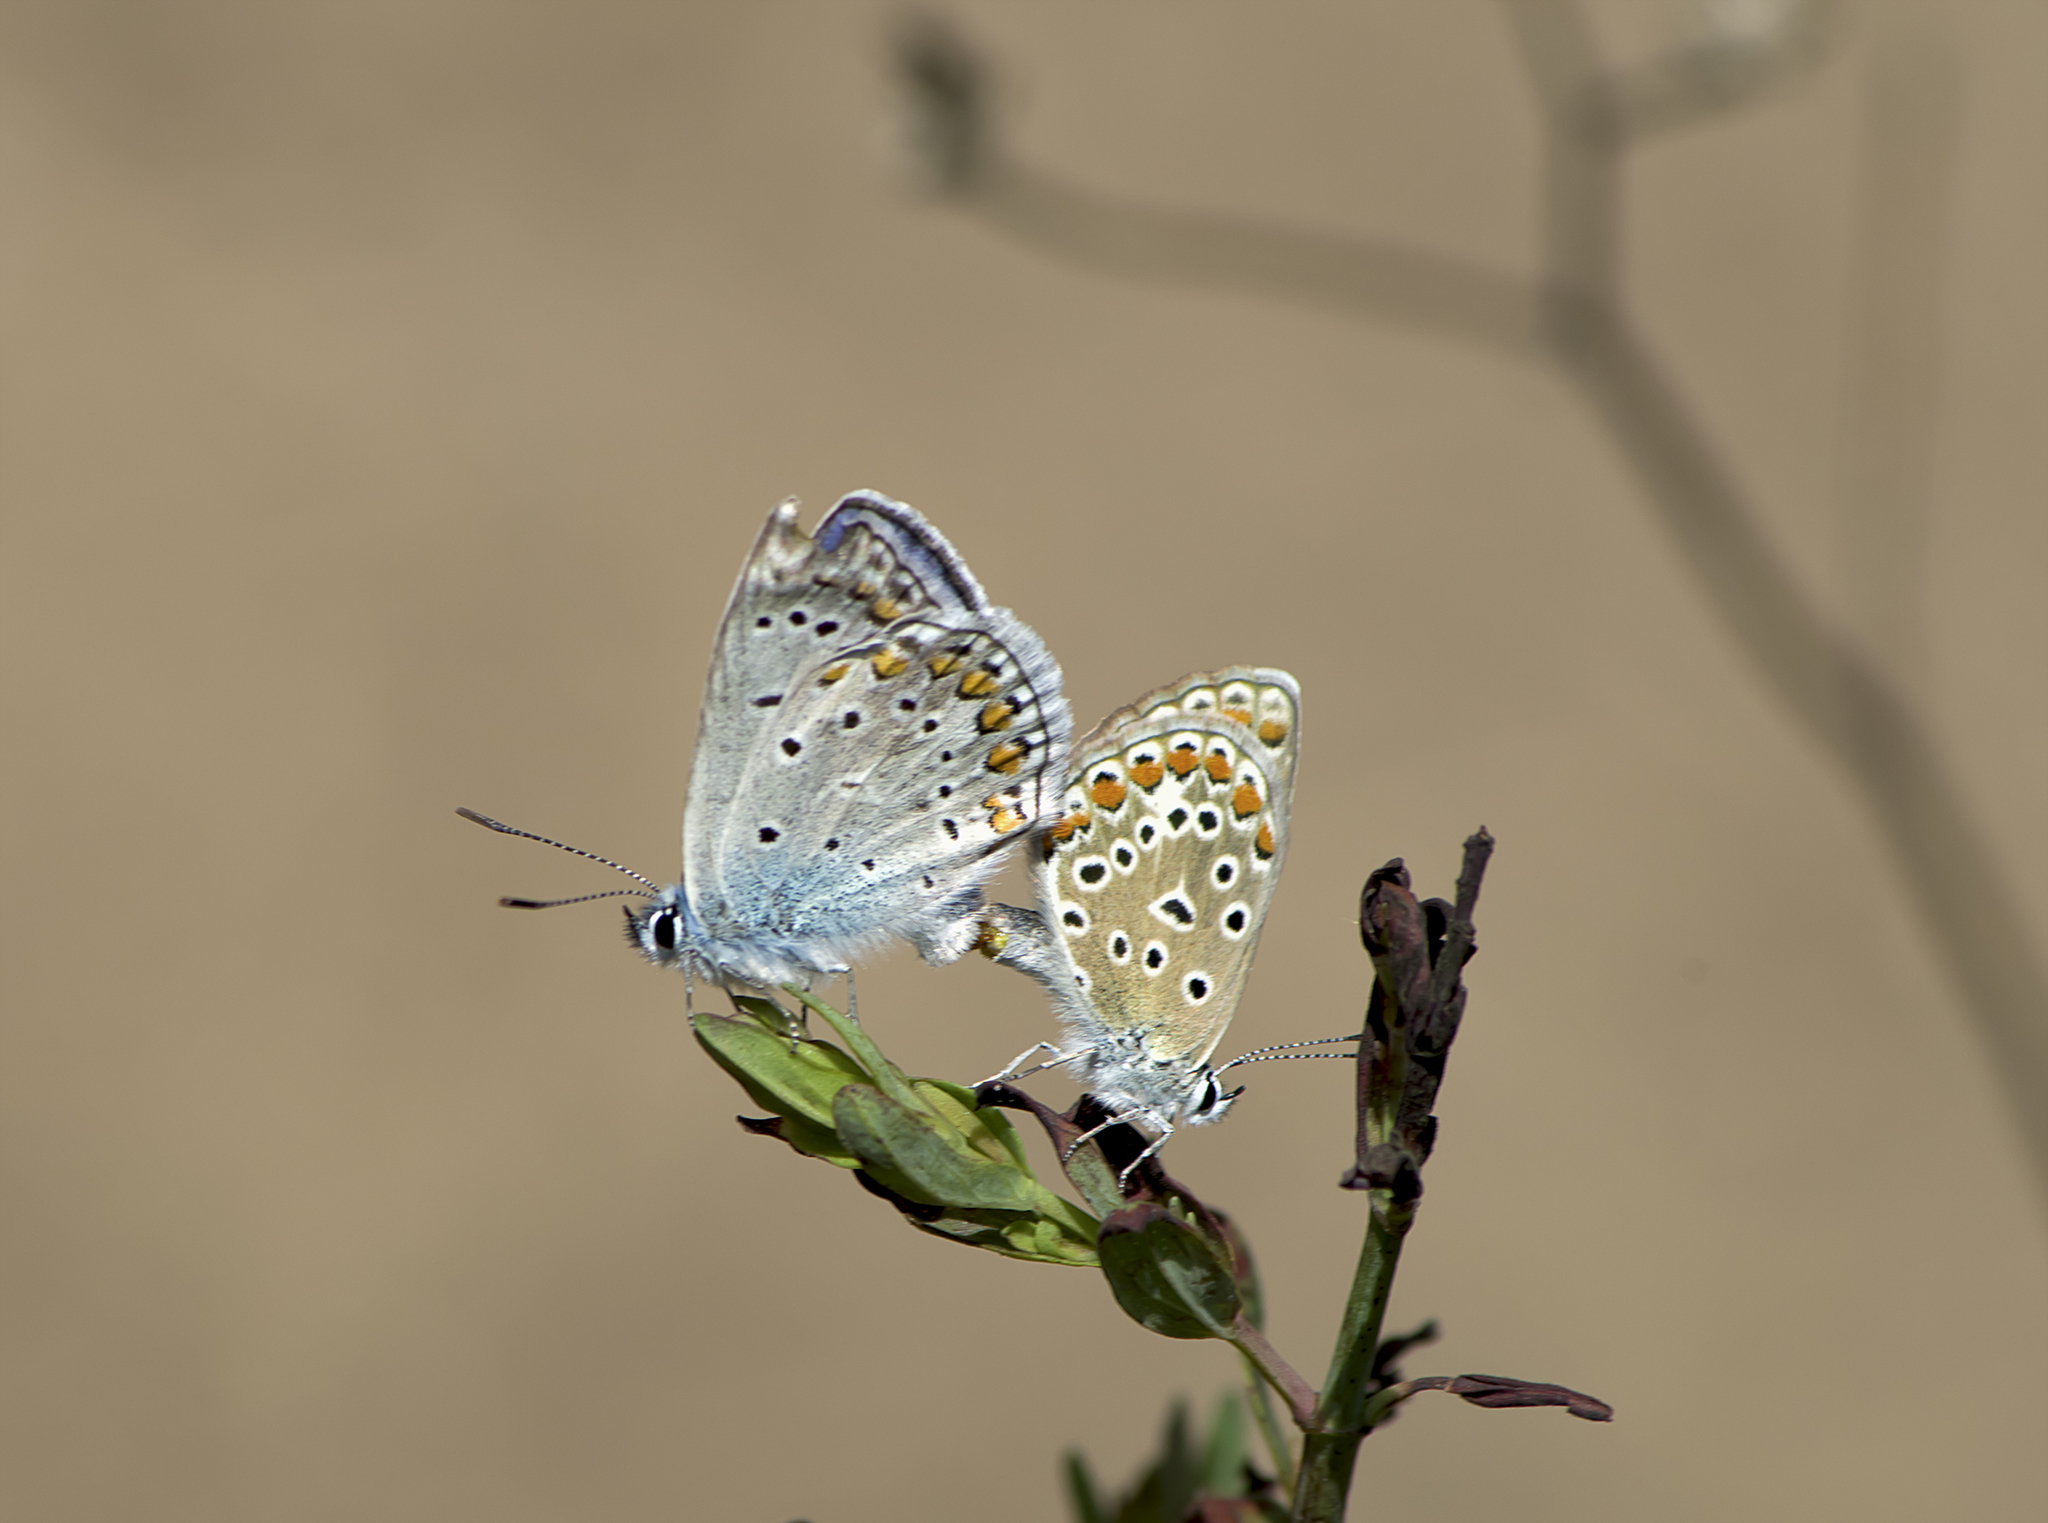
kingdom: Animalia
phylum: Arthropoda
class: Insecta
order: Lepidoptera
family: Lycaenidae
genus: Polyommatus
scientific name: Polyommatus icarus
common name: Common blue
